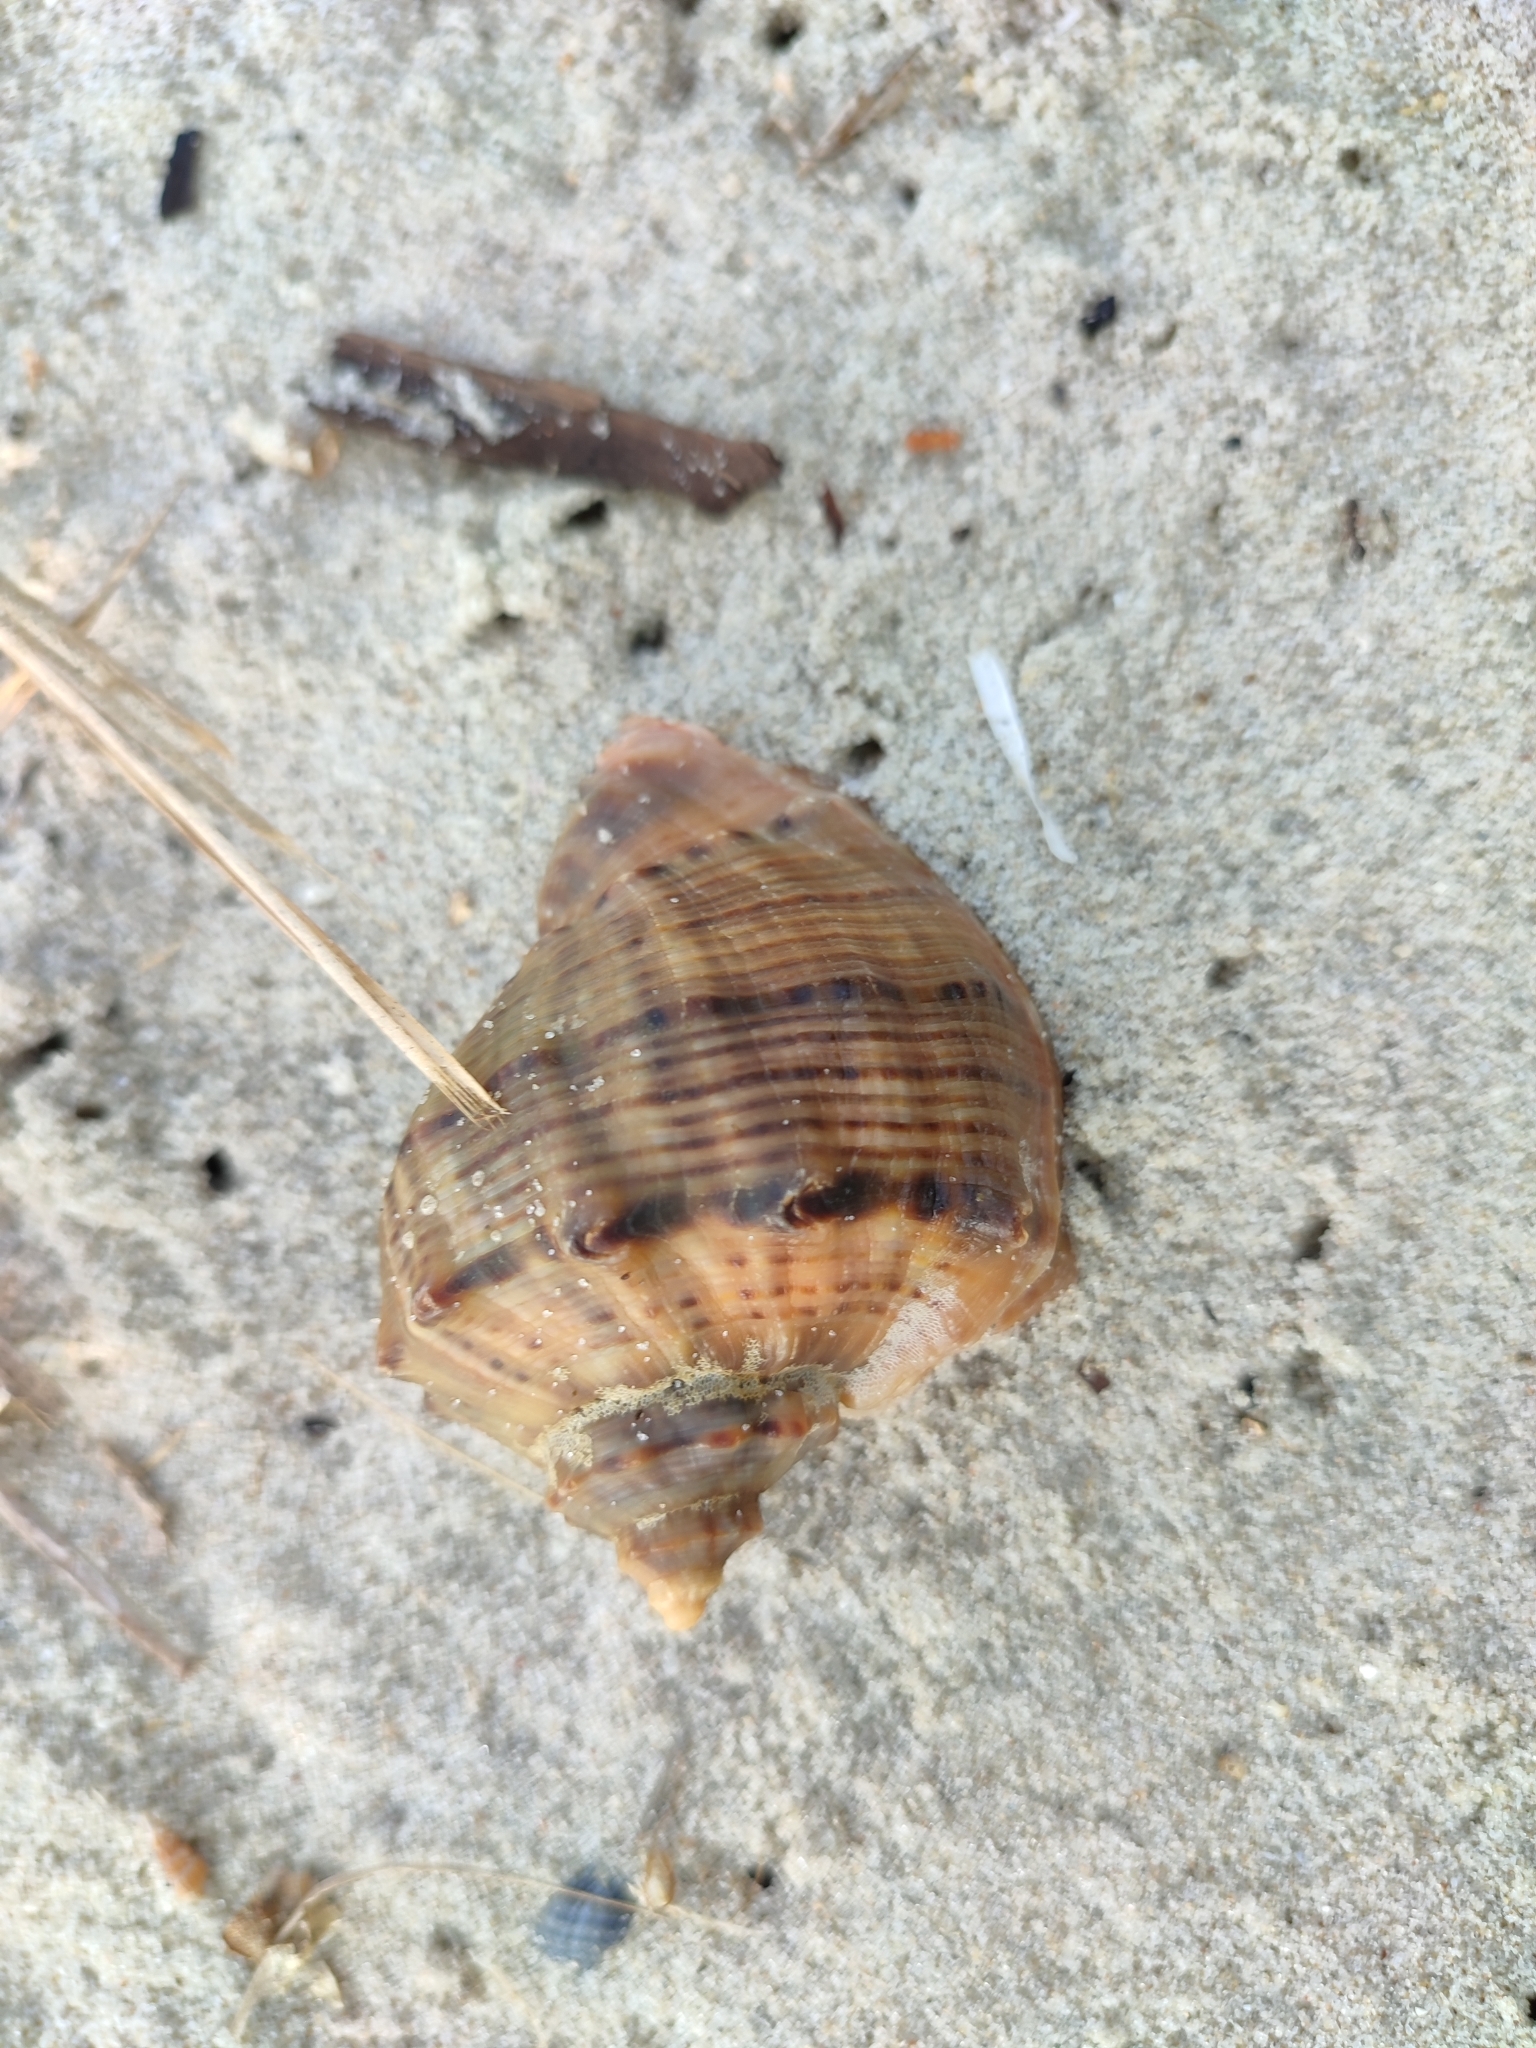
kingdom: Animalia
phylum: Mollusca
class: Gastropoda
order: Neogastropoda
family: Muricidae
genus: Rapana
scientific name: Rapana venosa
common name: Veined rapa whelk
